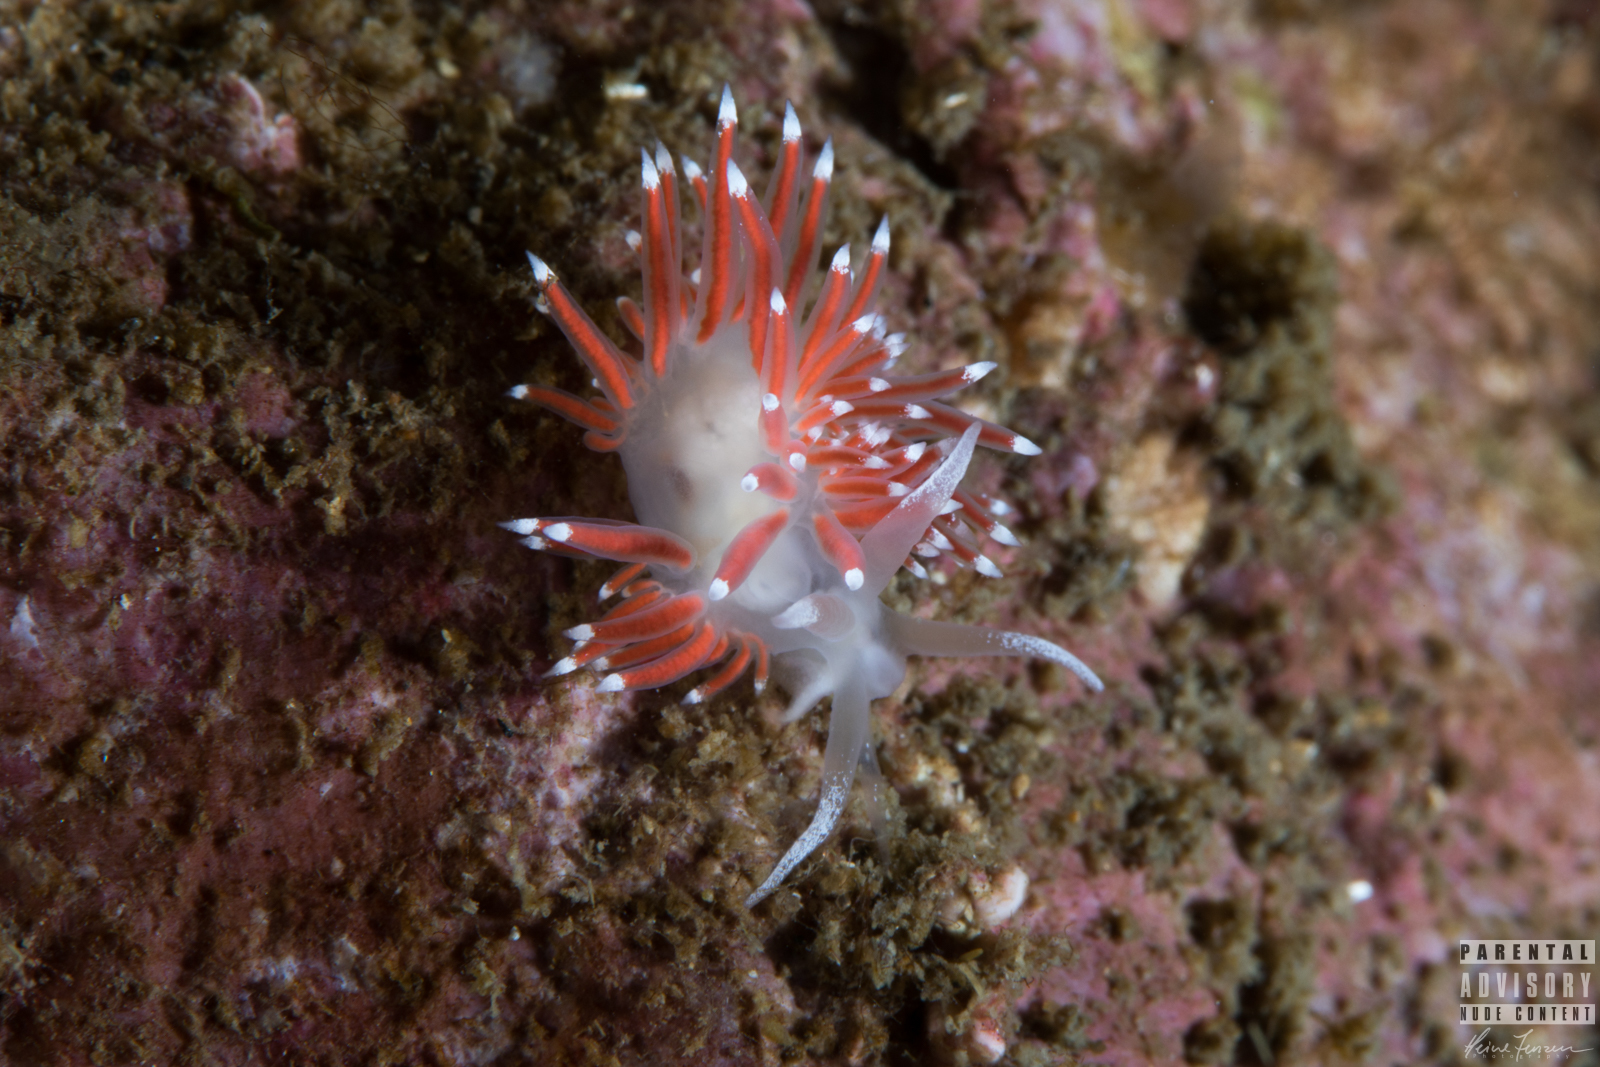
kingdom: Animalia
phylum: Mollusca
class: Gastropoda
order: Nudibranchia
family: Coryphellidae
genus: Coryphella
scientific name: Coryphella gracilis
